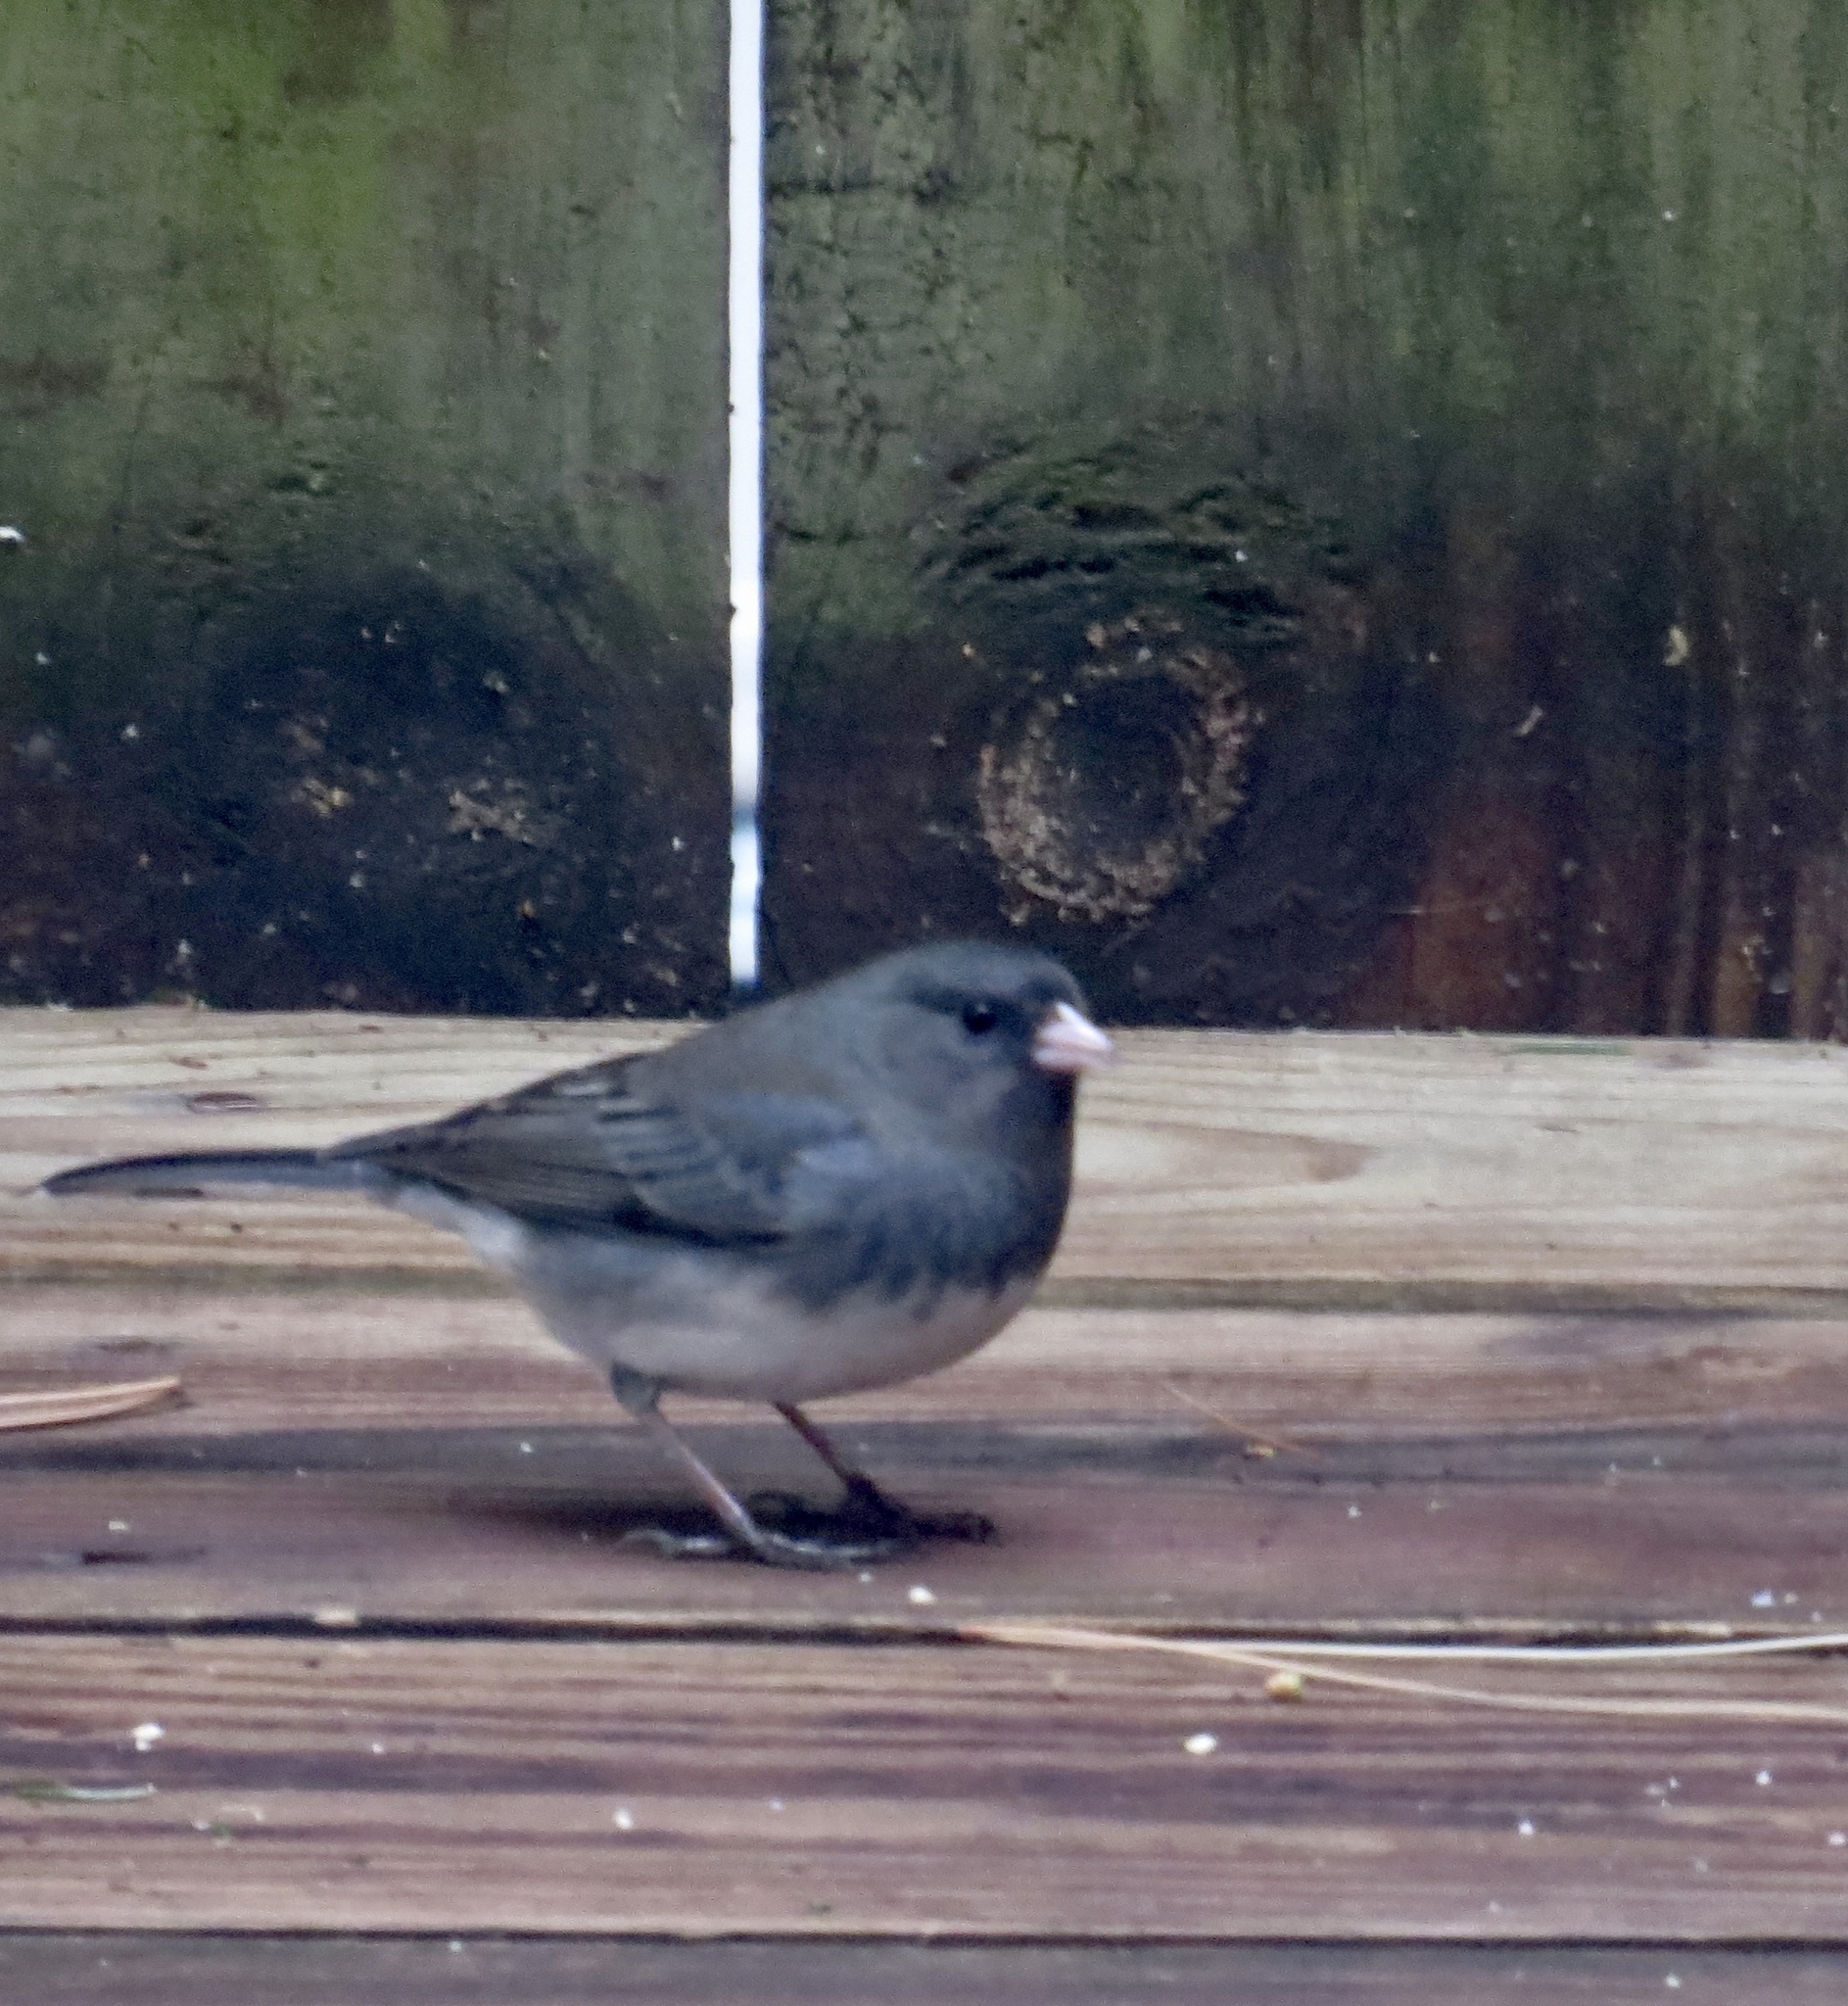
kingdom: Animalia
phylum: Chordata
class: Aves
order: Passeriformes
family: Passerellidae
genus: Junco
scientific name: Junco hyemalis
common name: Dark-eyed junco
